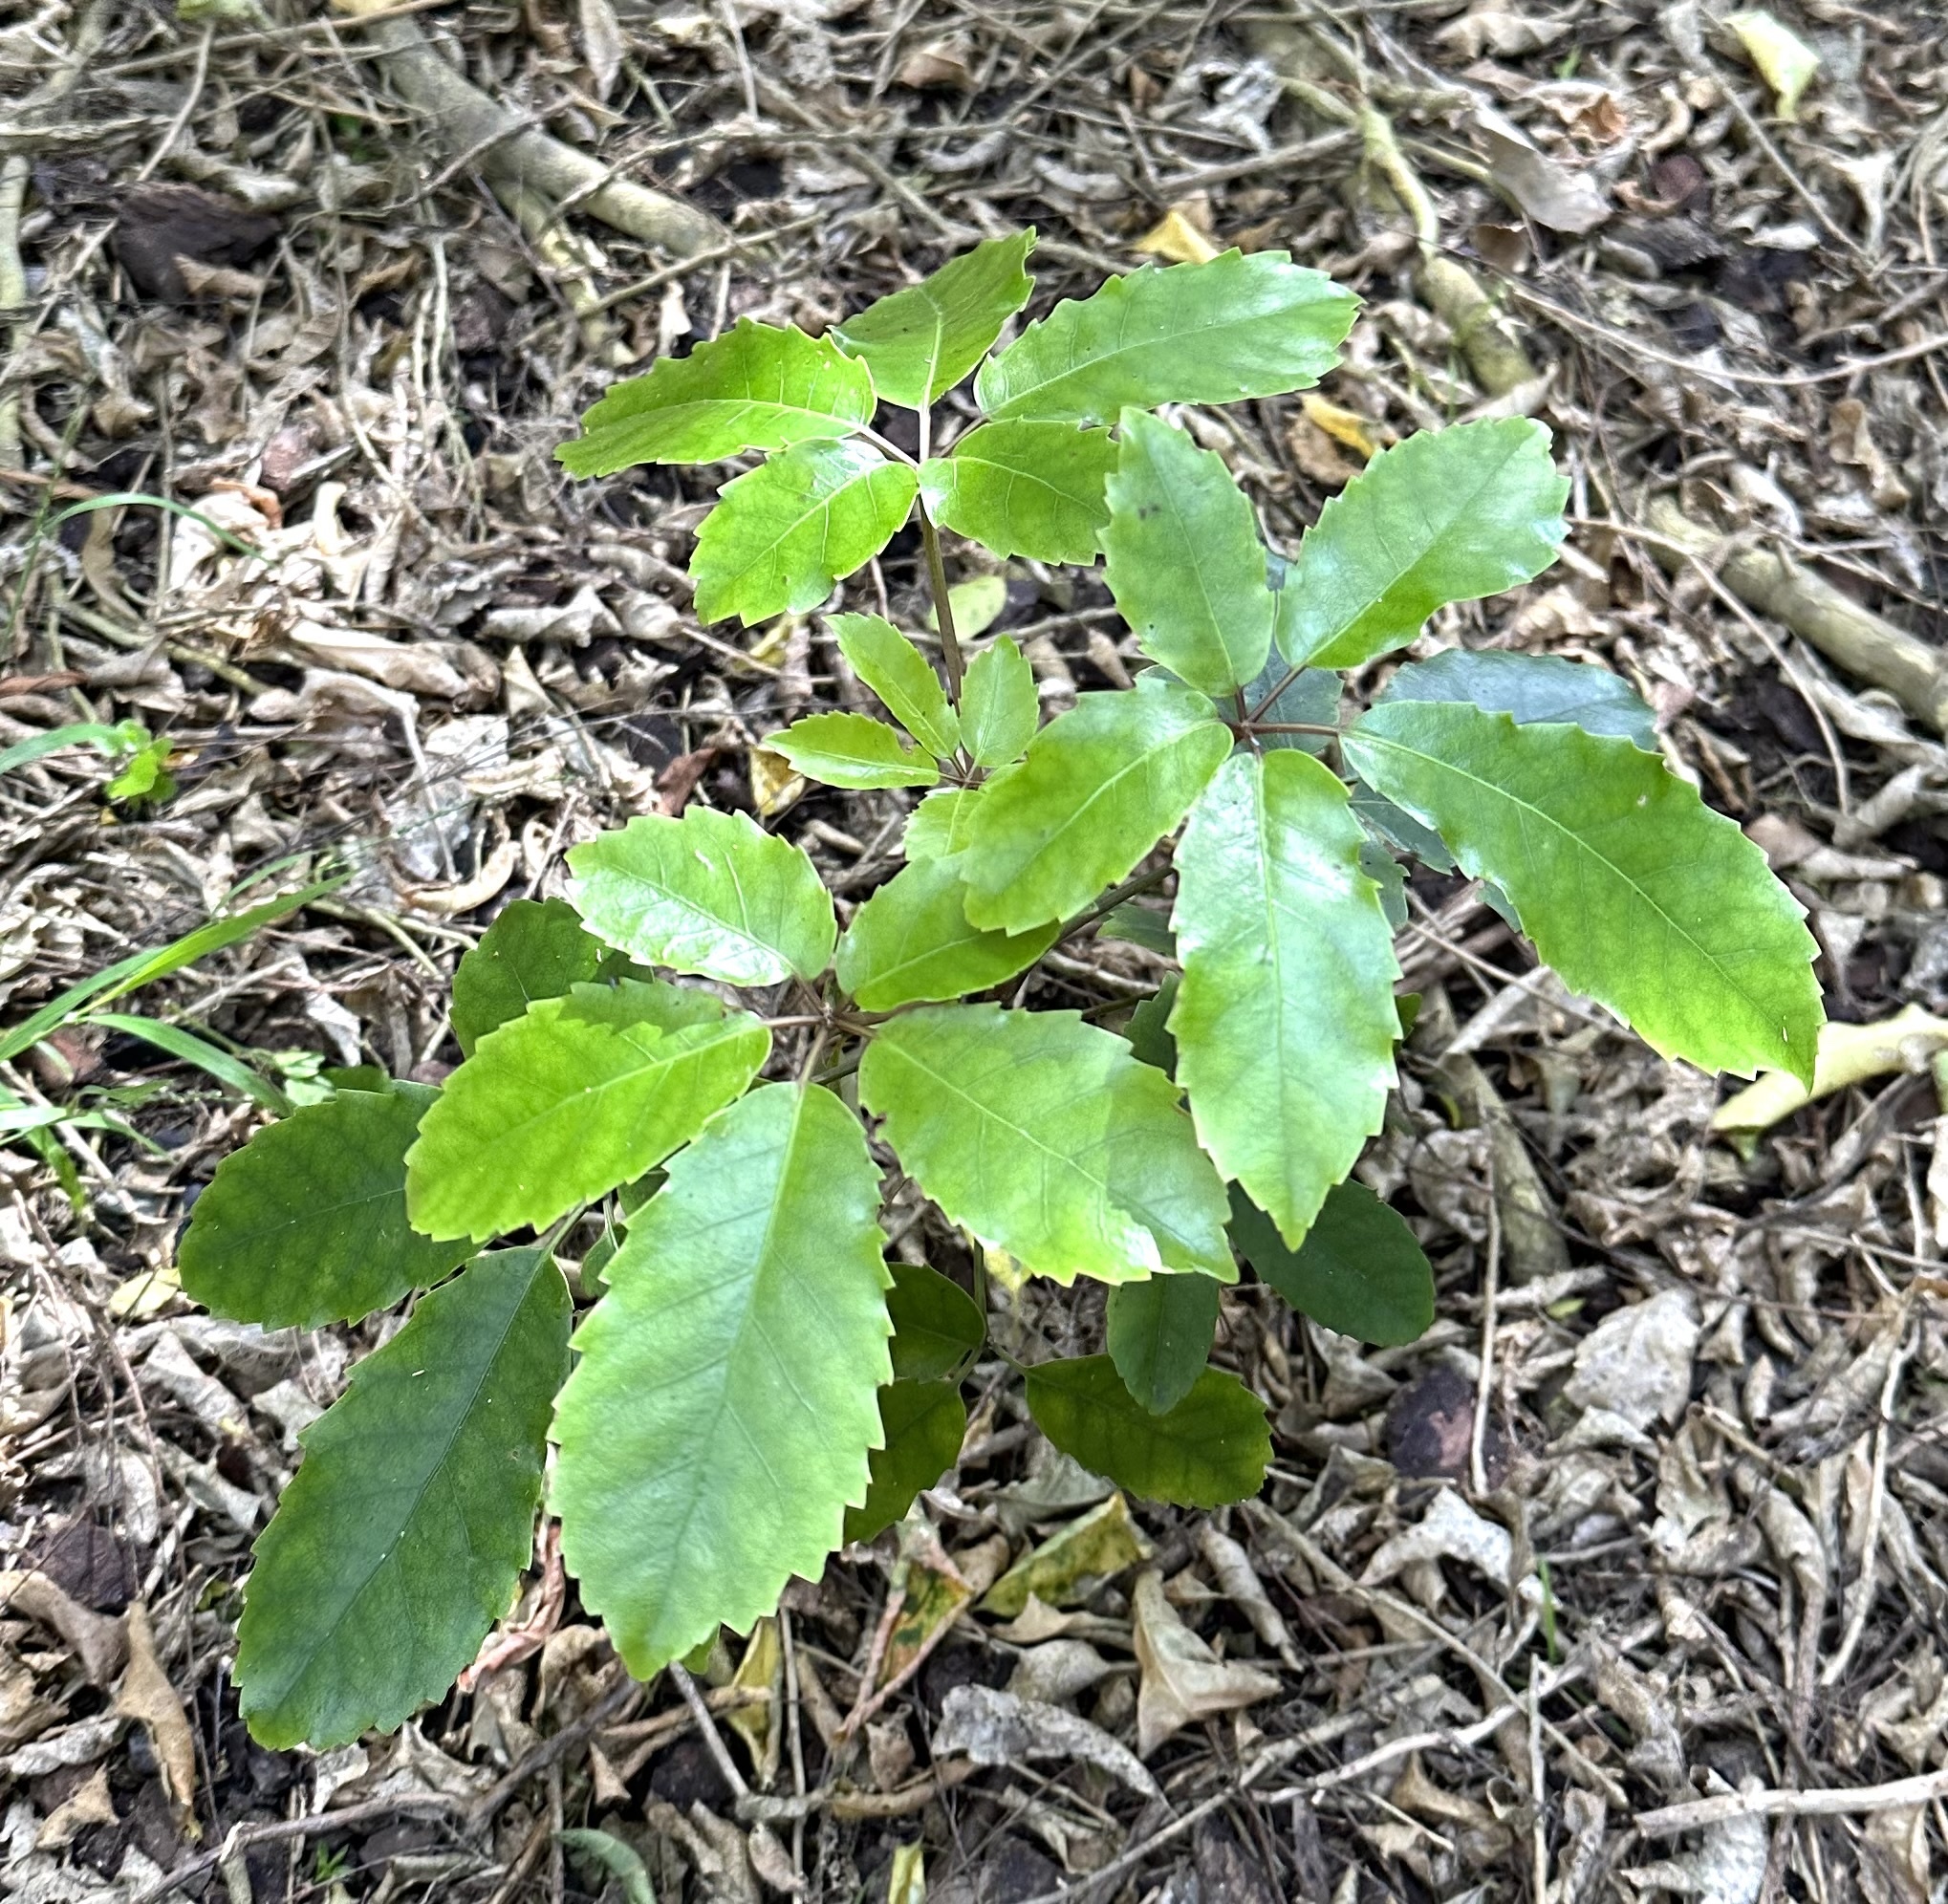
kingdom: Plantae
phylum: Tracheophyta
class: Magnoliopsida
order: Apiales
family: Araliaceae
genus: Neopanax
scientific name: Neopanax arboreus
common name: Five-fingers
